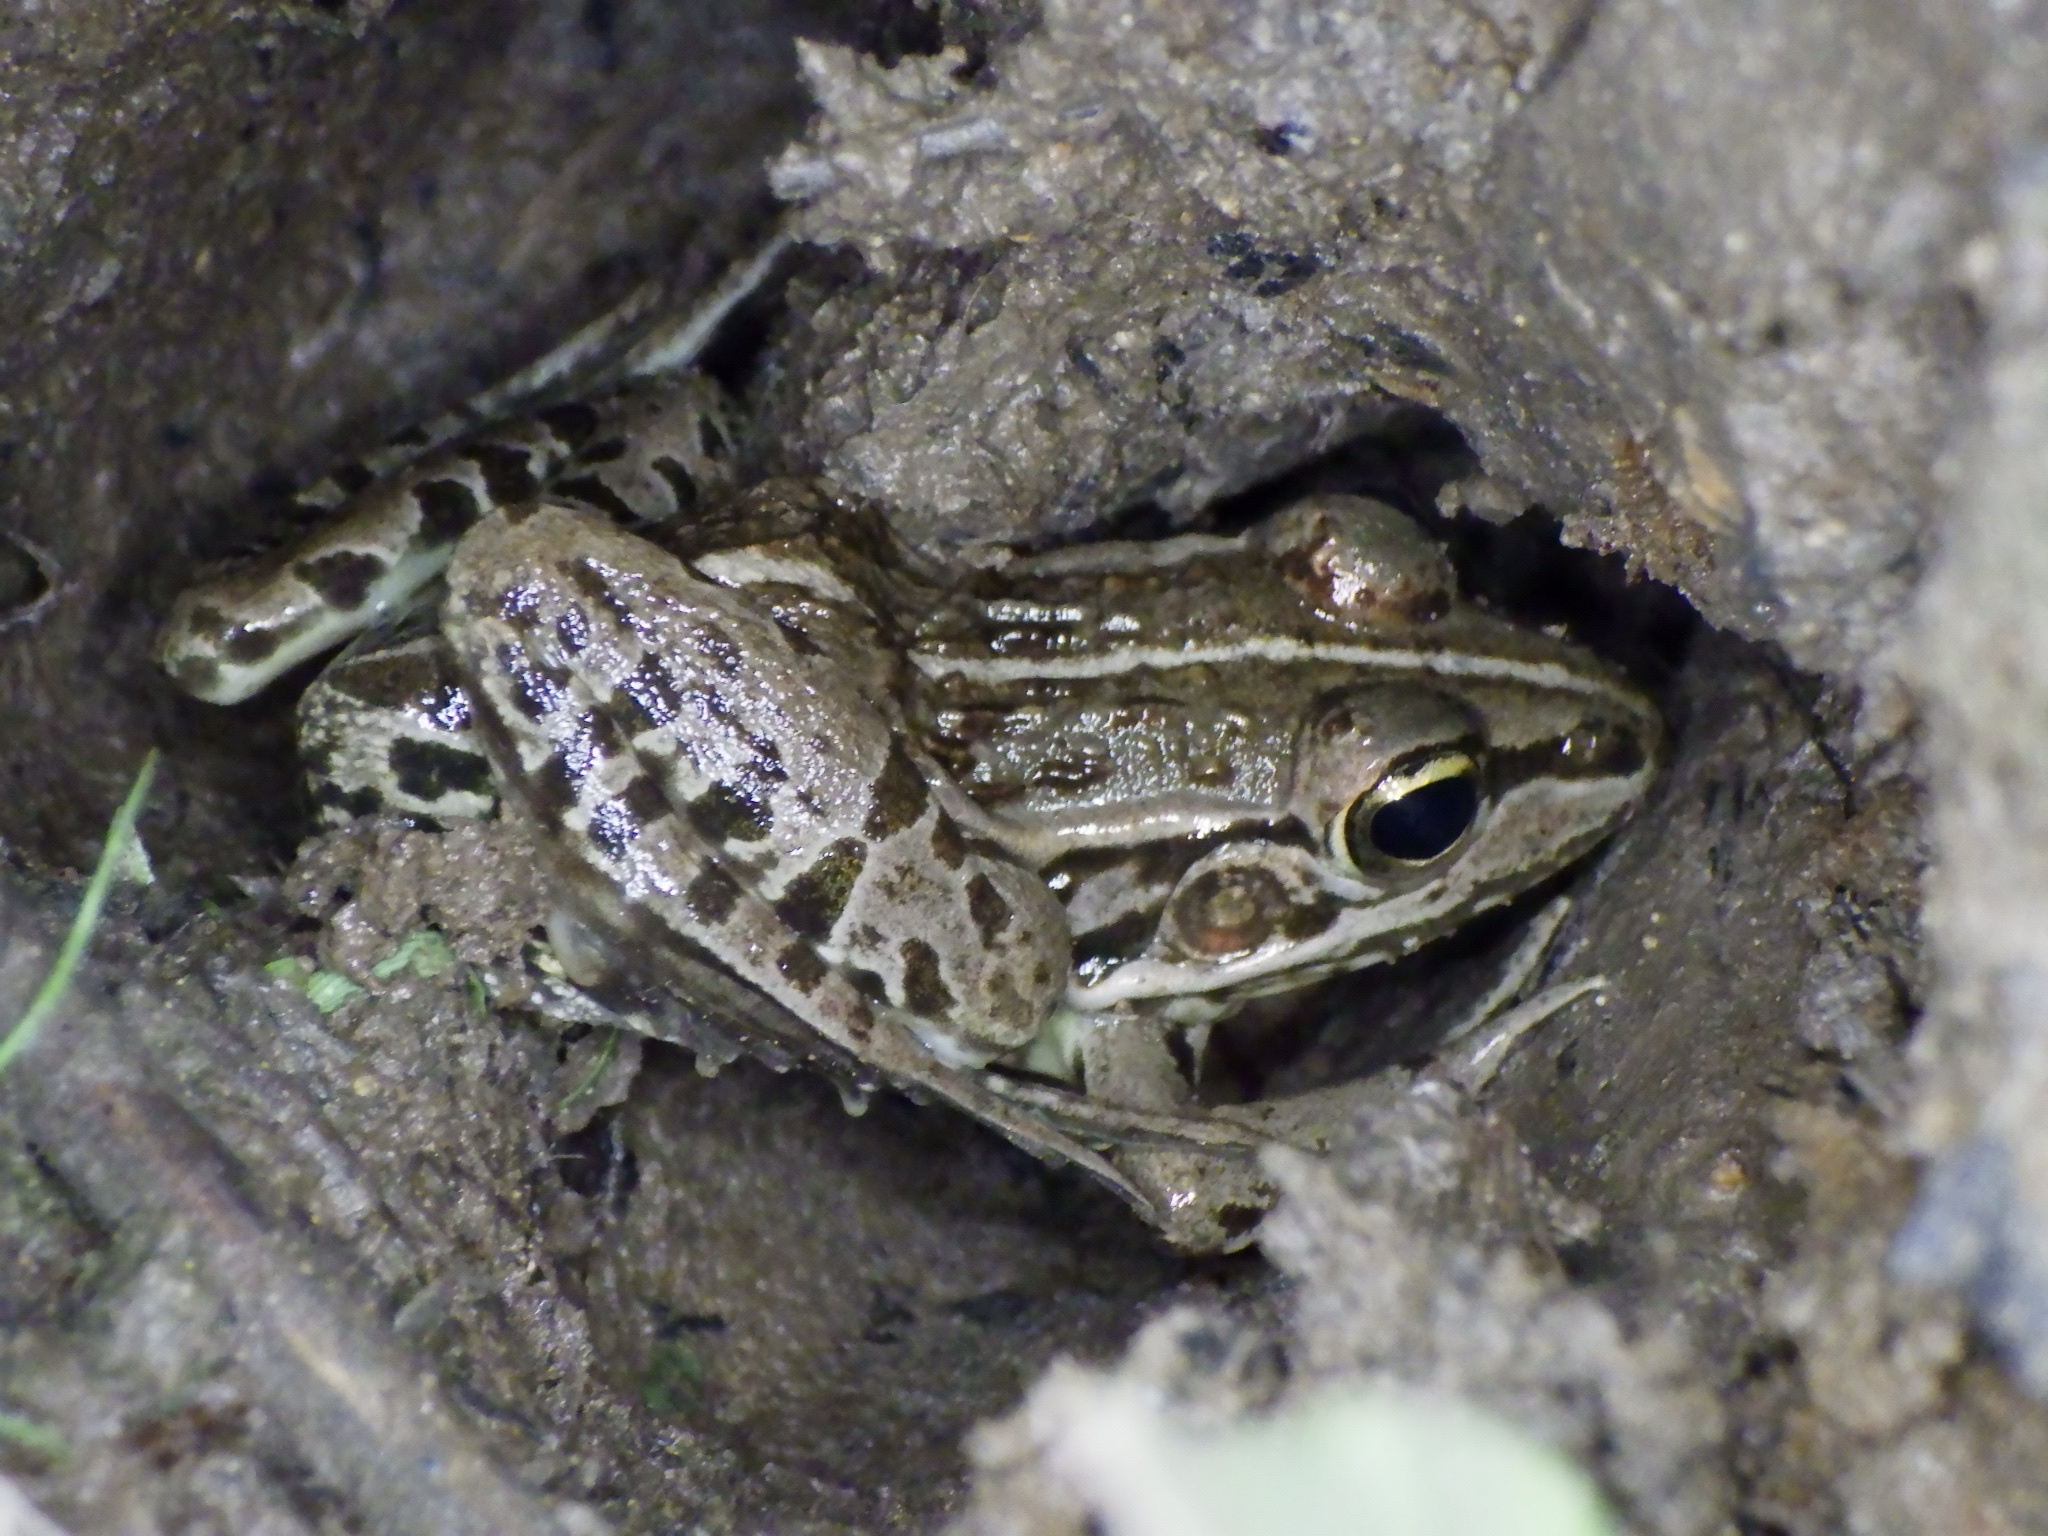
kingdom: Animalia
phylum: Chordata
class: Amphibia
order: Anura
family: Ranidae
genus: Pelophylax
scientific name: Pelophylax nigromaculatus
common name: Black-spotted pond frog
